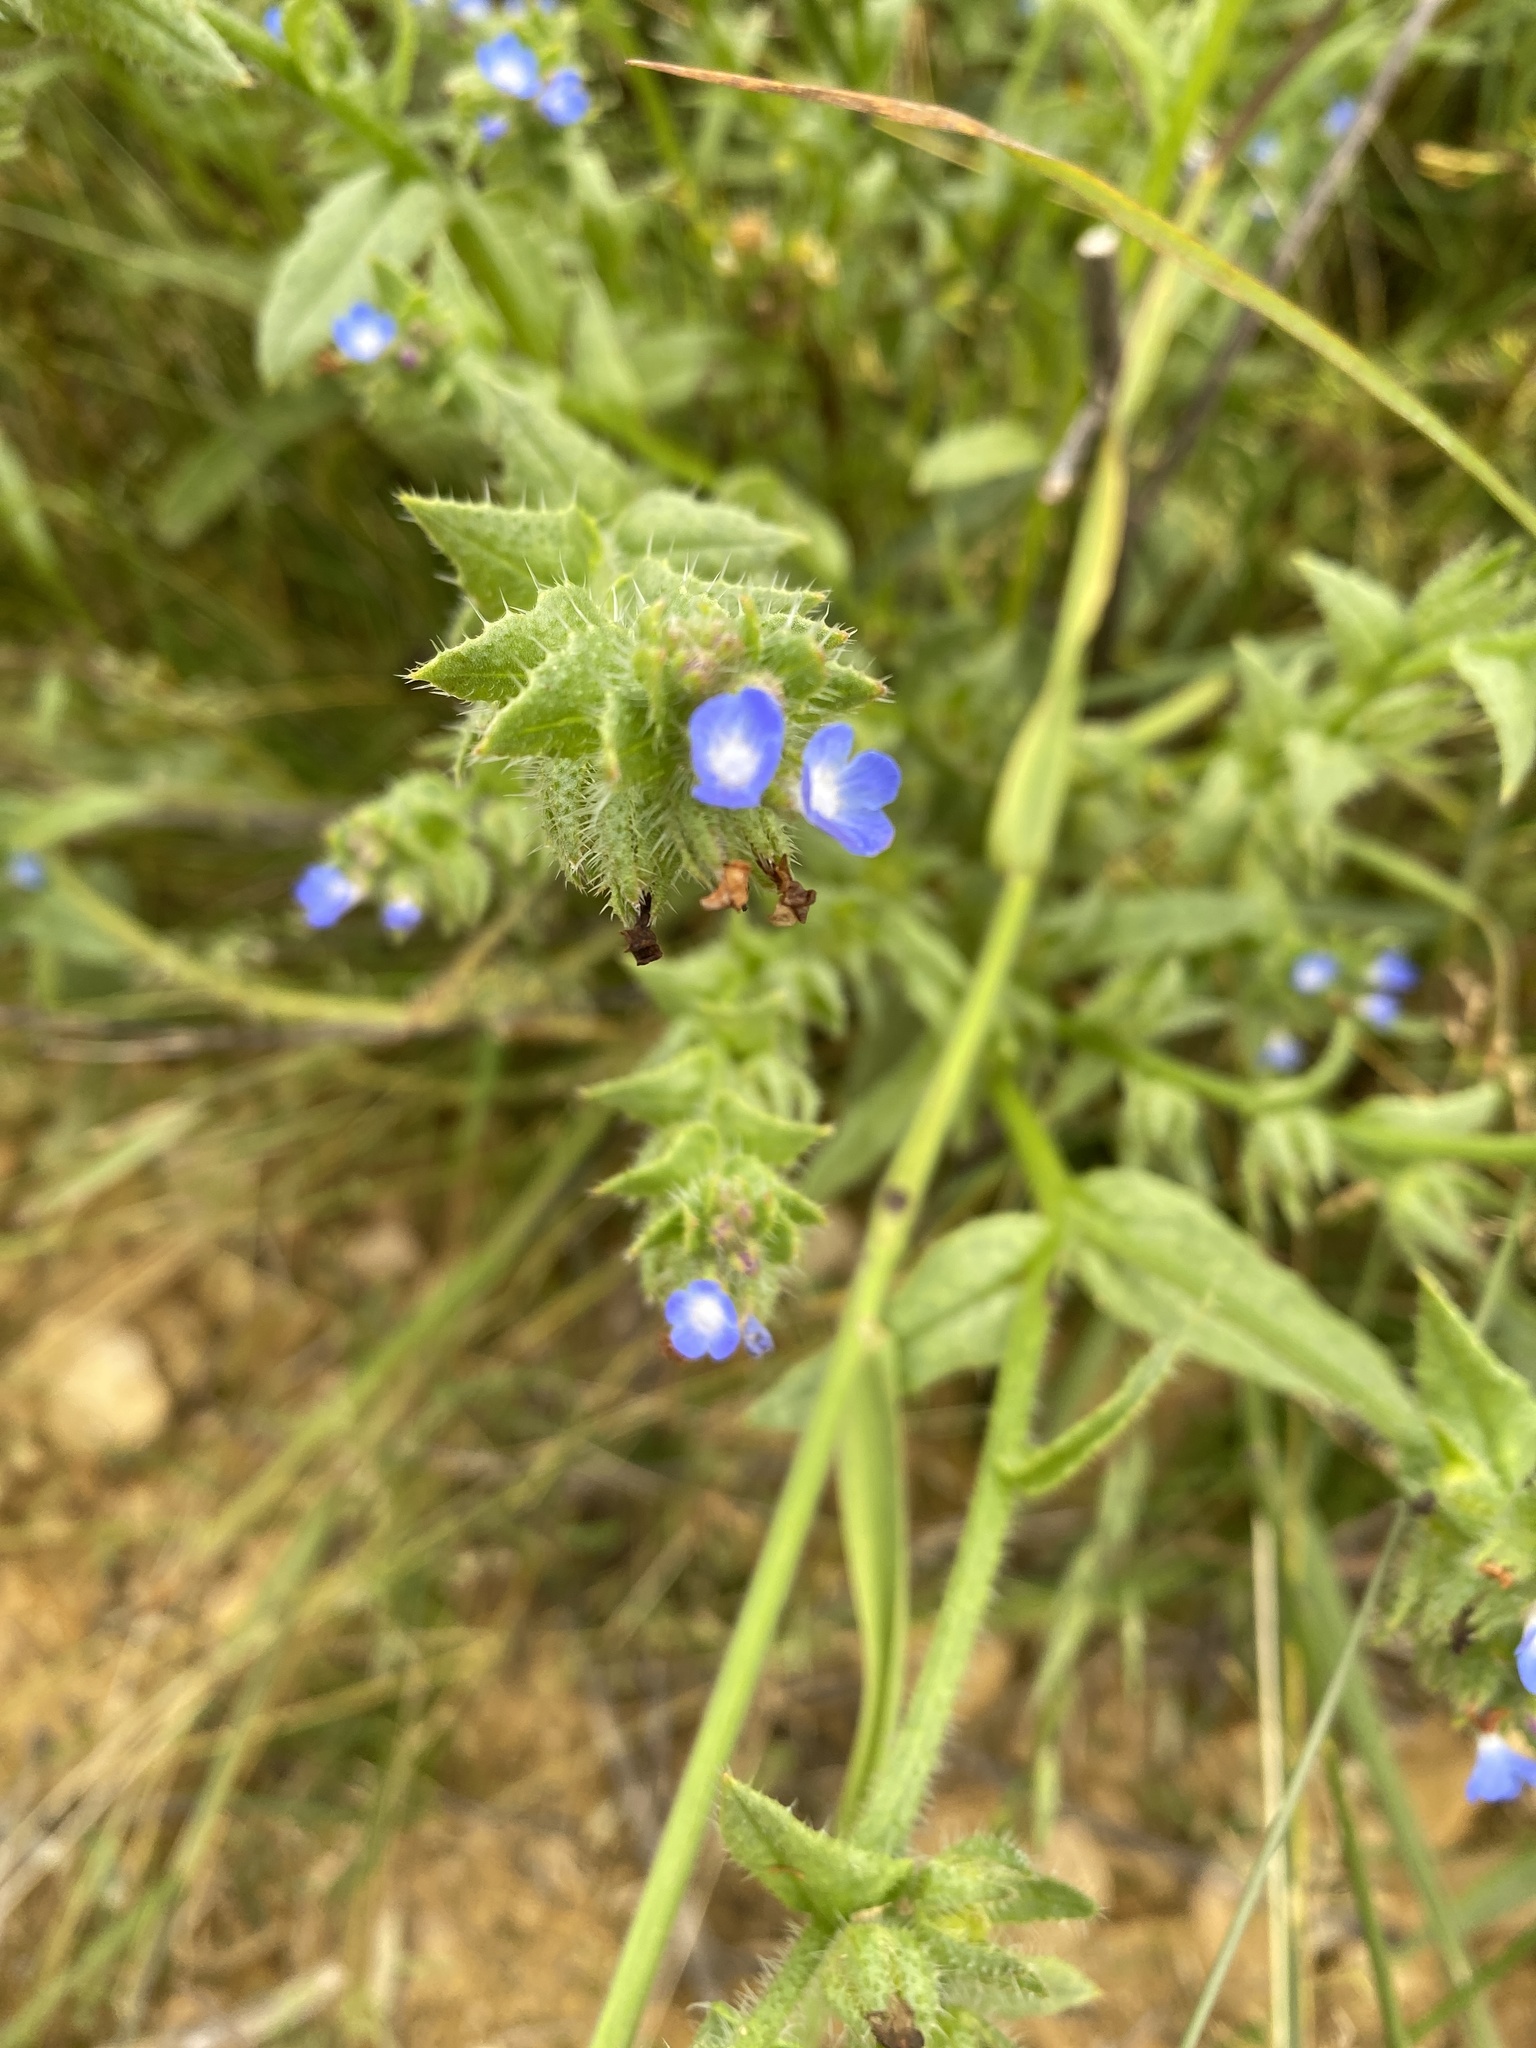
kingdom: Plantae
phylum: Tracheophyta
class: Magnoliopsida
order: Boraginales
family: Boraginaceae
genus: Lycopsis
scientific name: Lycopsis arvensis
